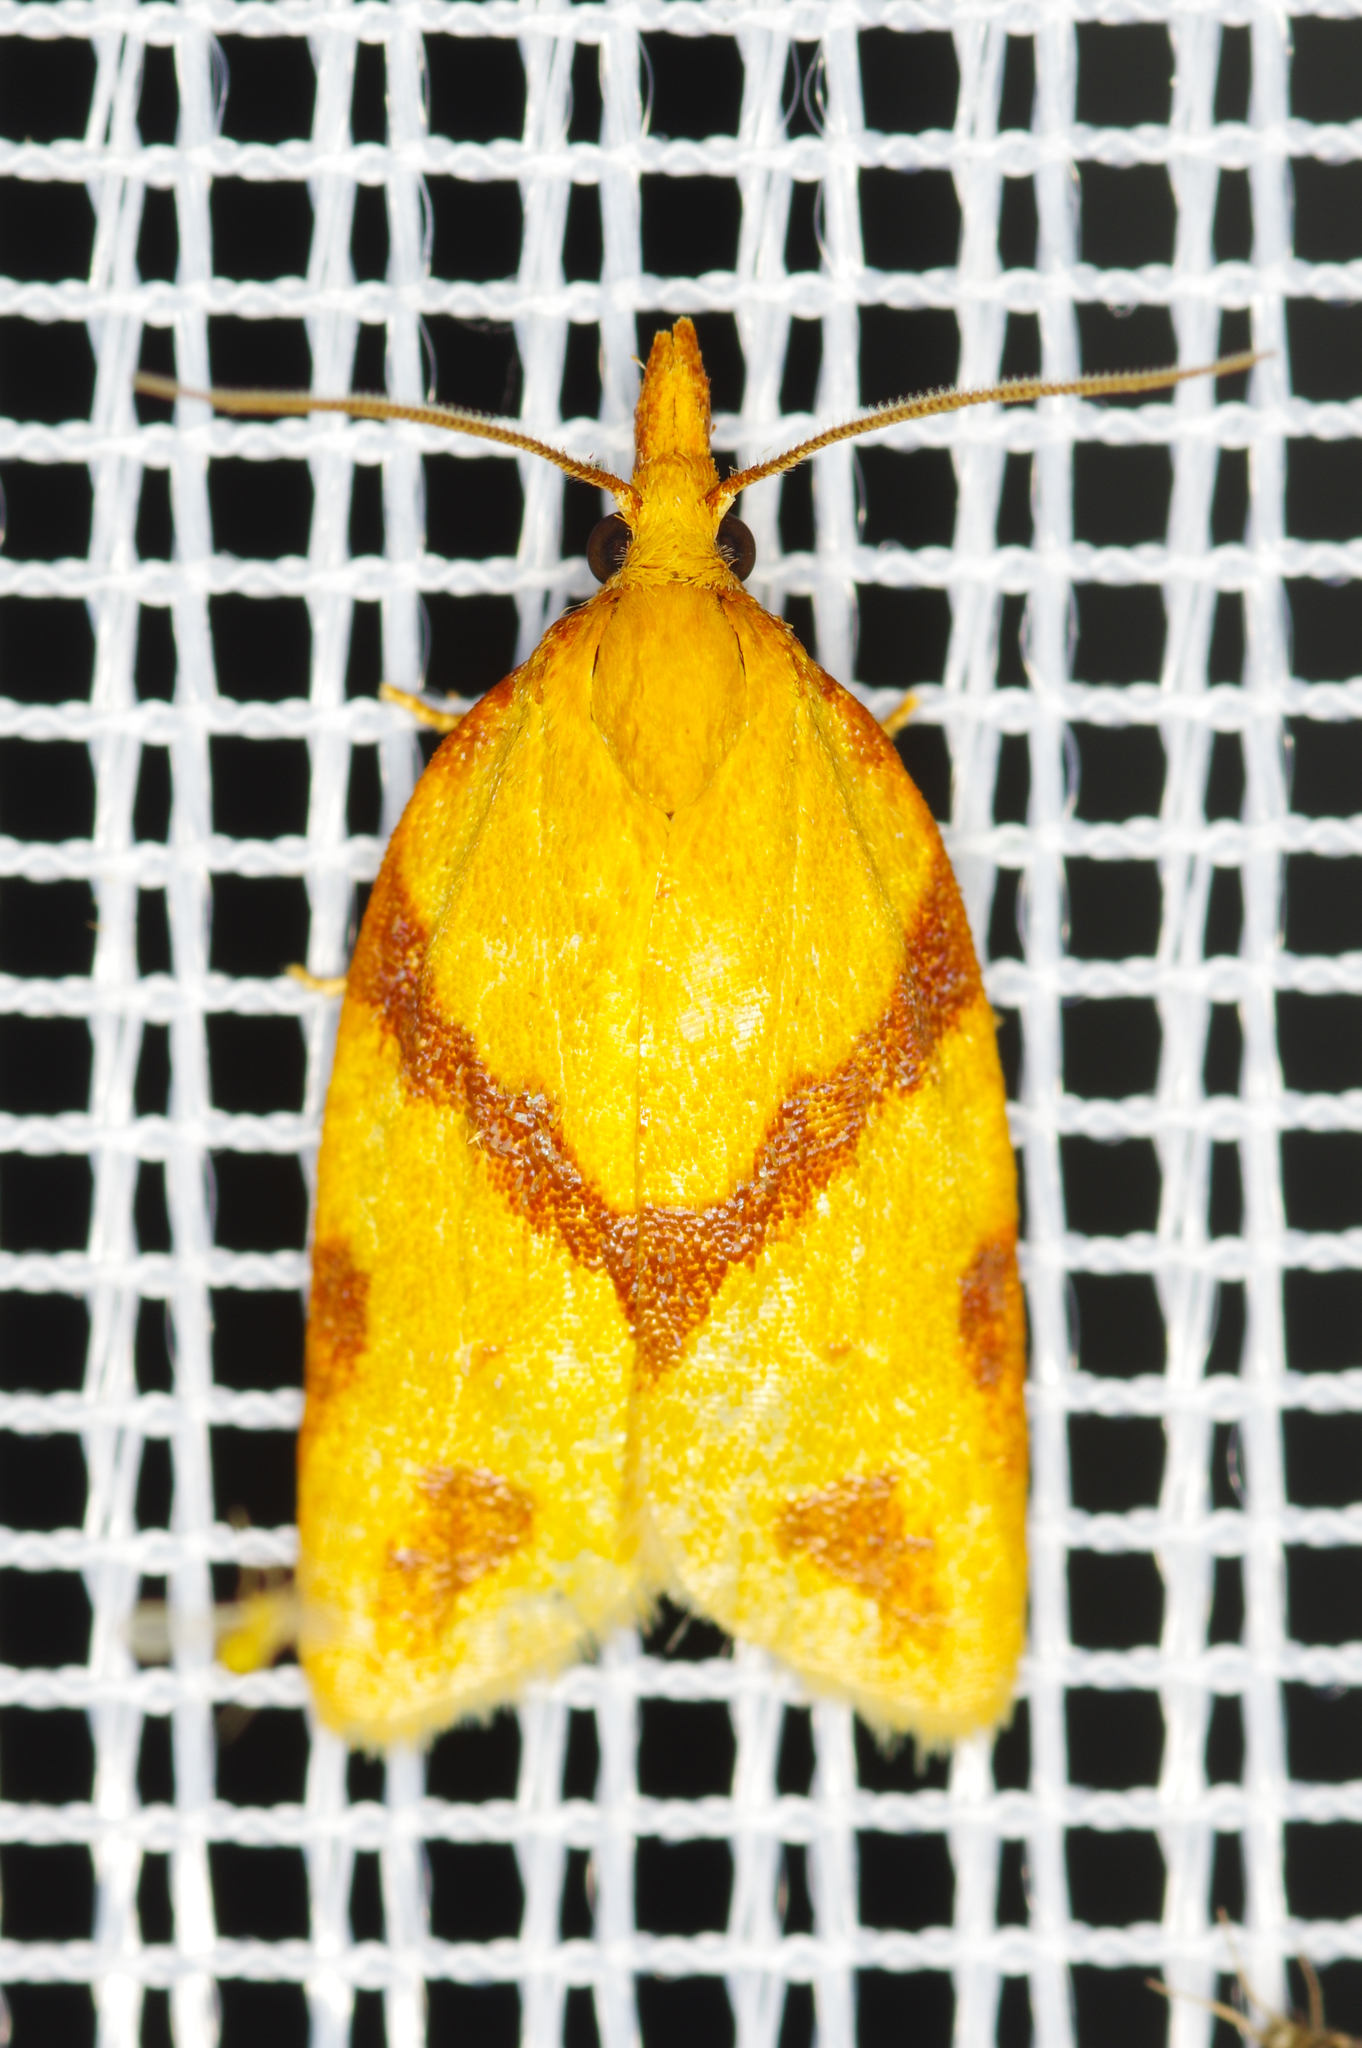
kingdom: Animalia
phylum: Arthropoda
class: Insecta
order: Lepidoptera
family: Tortricidae
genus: Sparganothis
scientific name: Sparganothis unifasciana
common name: One-lined sparganothis moth
